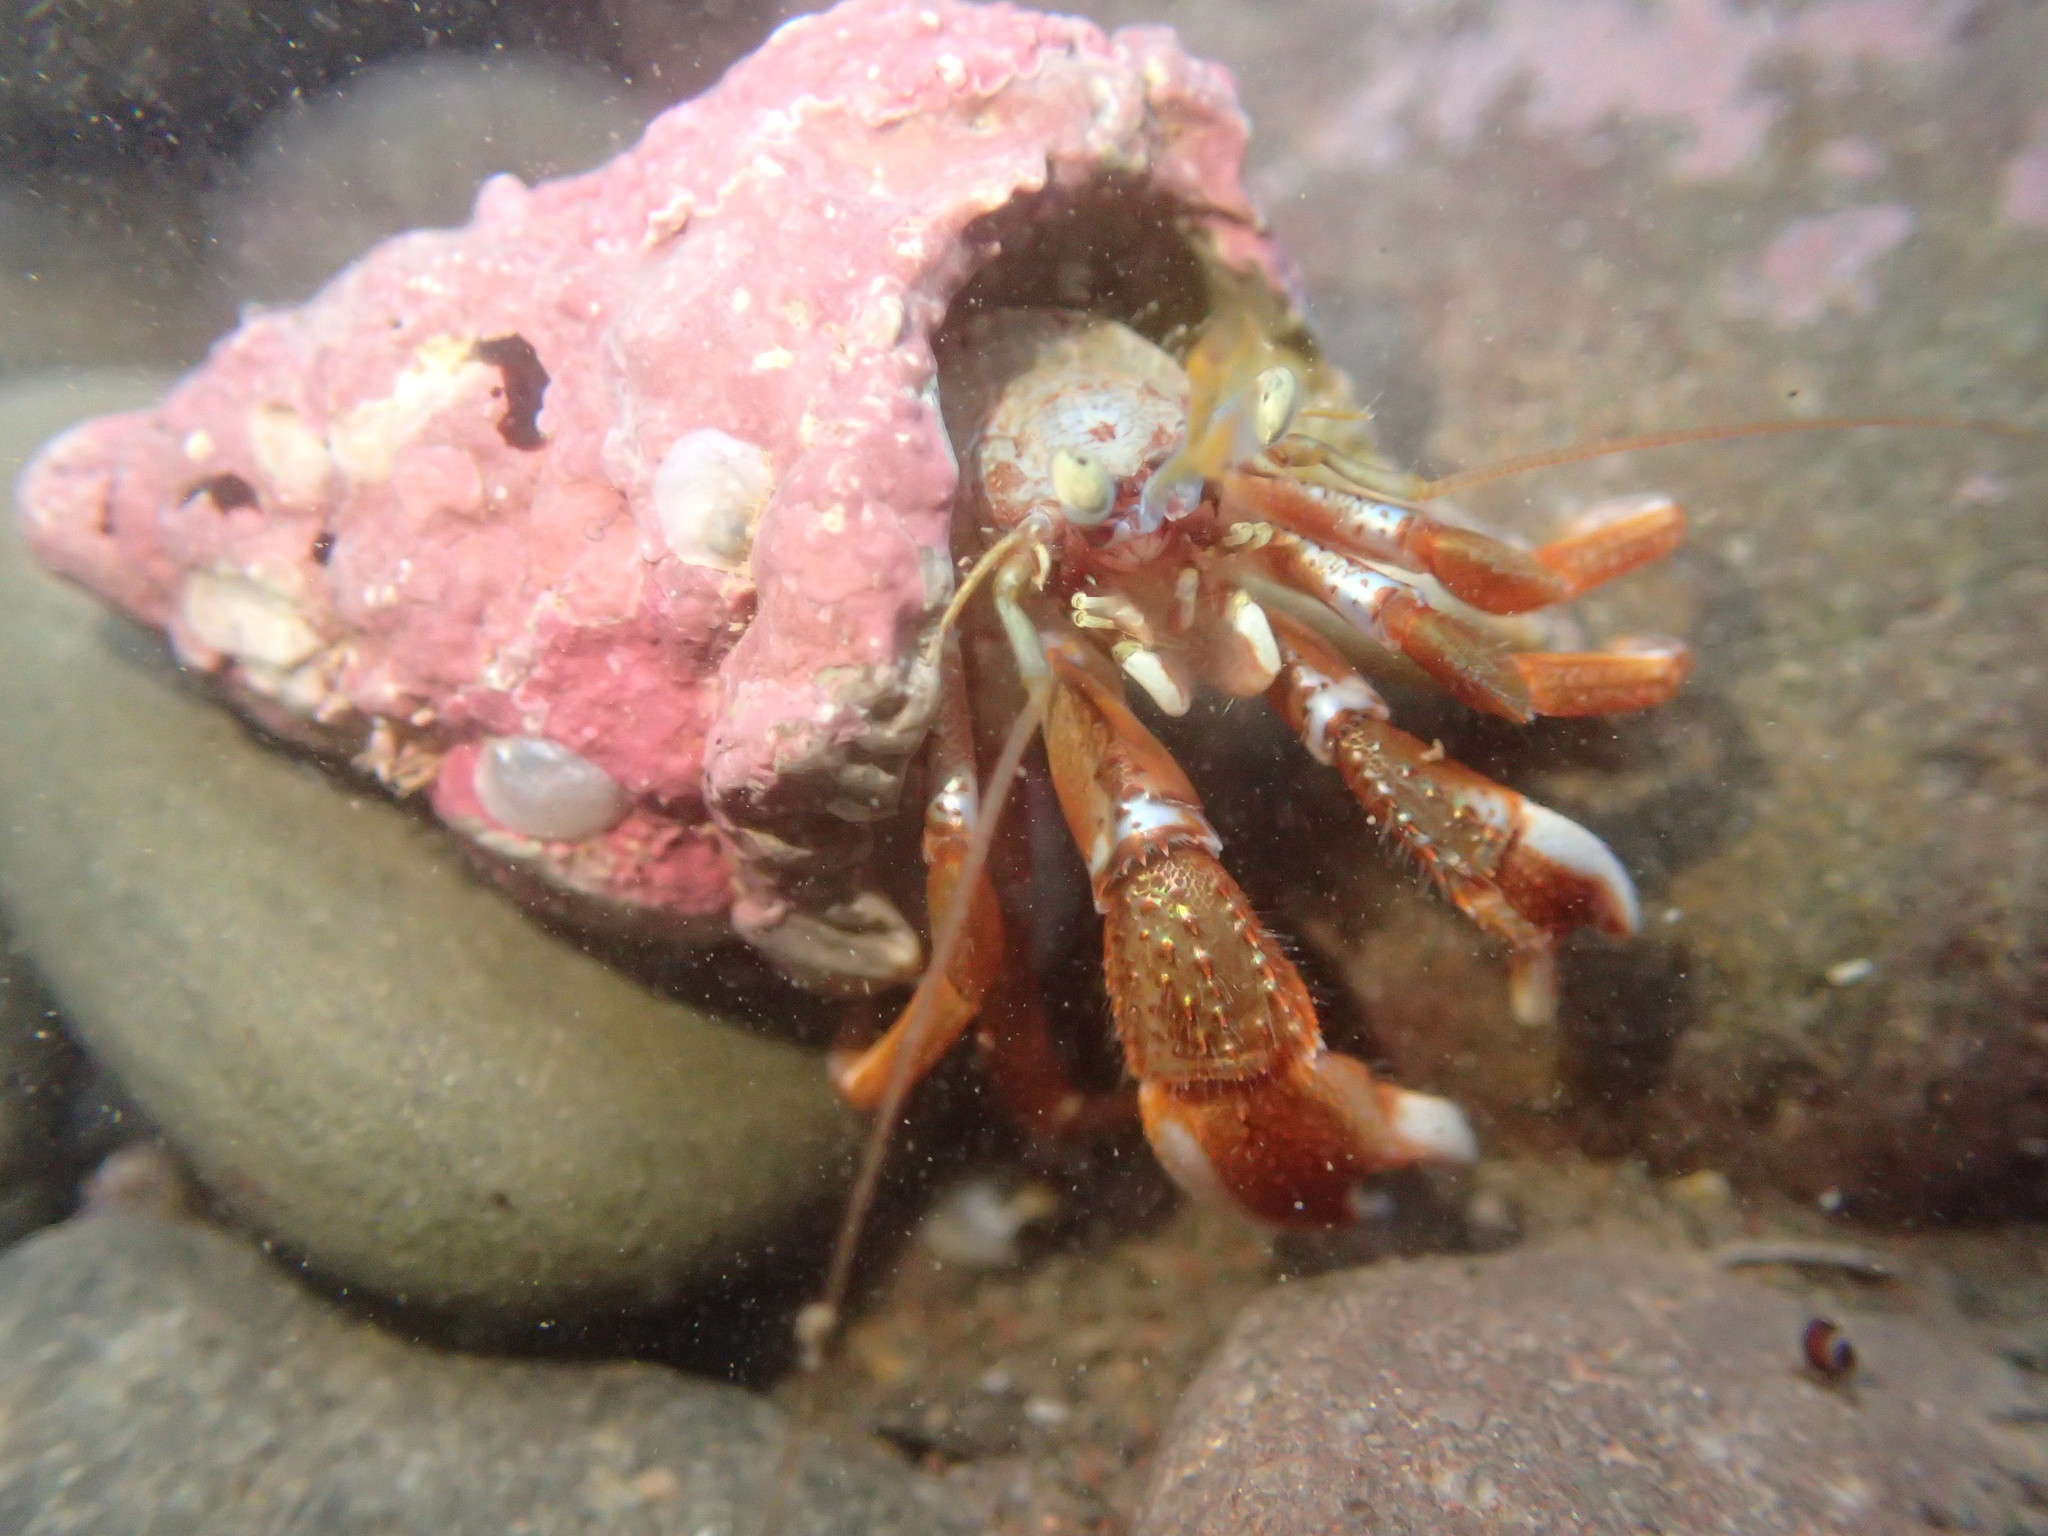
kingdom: Animalia
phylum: Arthropoda
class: Malacostraca
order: Decapoda
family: Paguridae
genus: Pagurus
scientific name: Pagurus acadianus
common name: Acadian hermit crab
